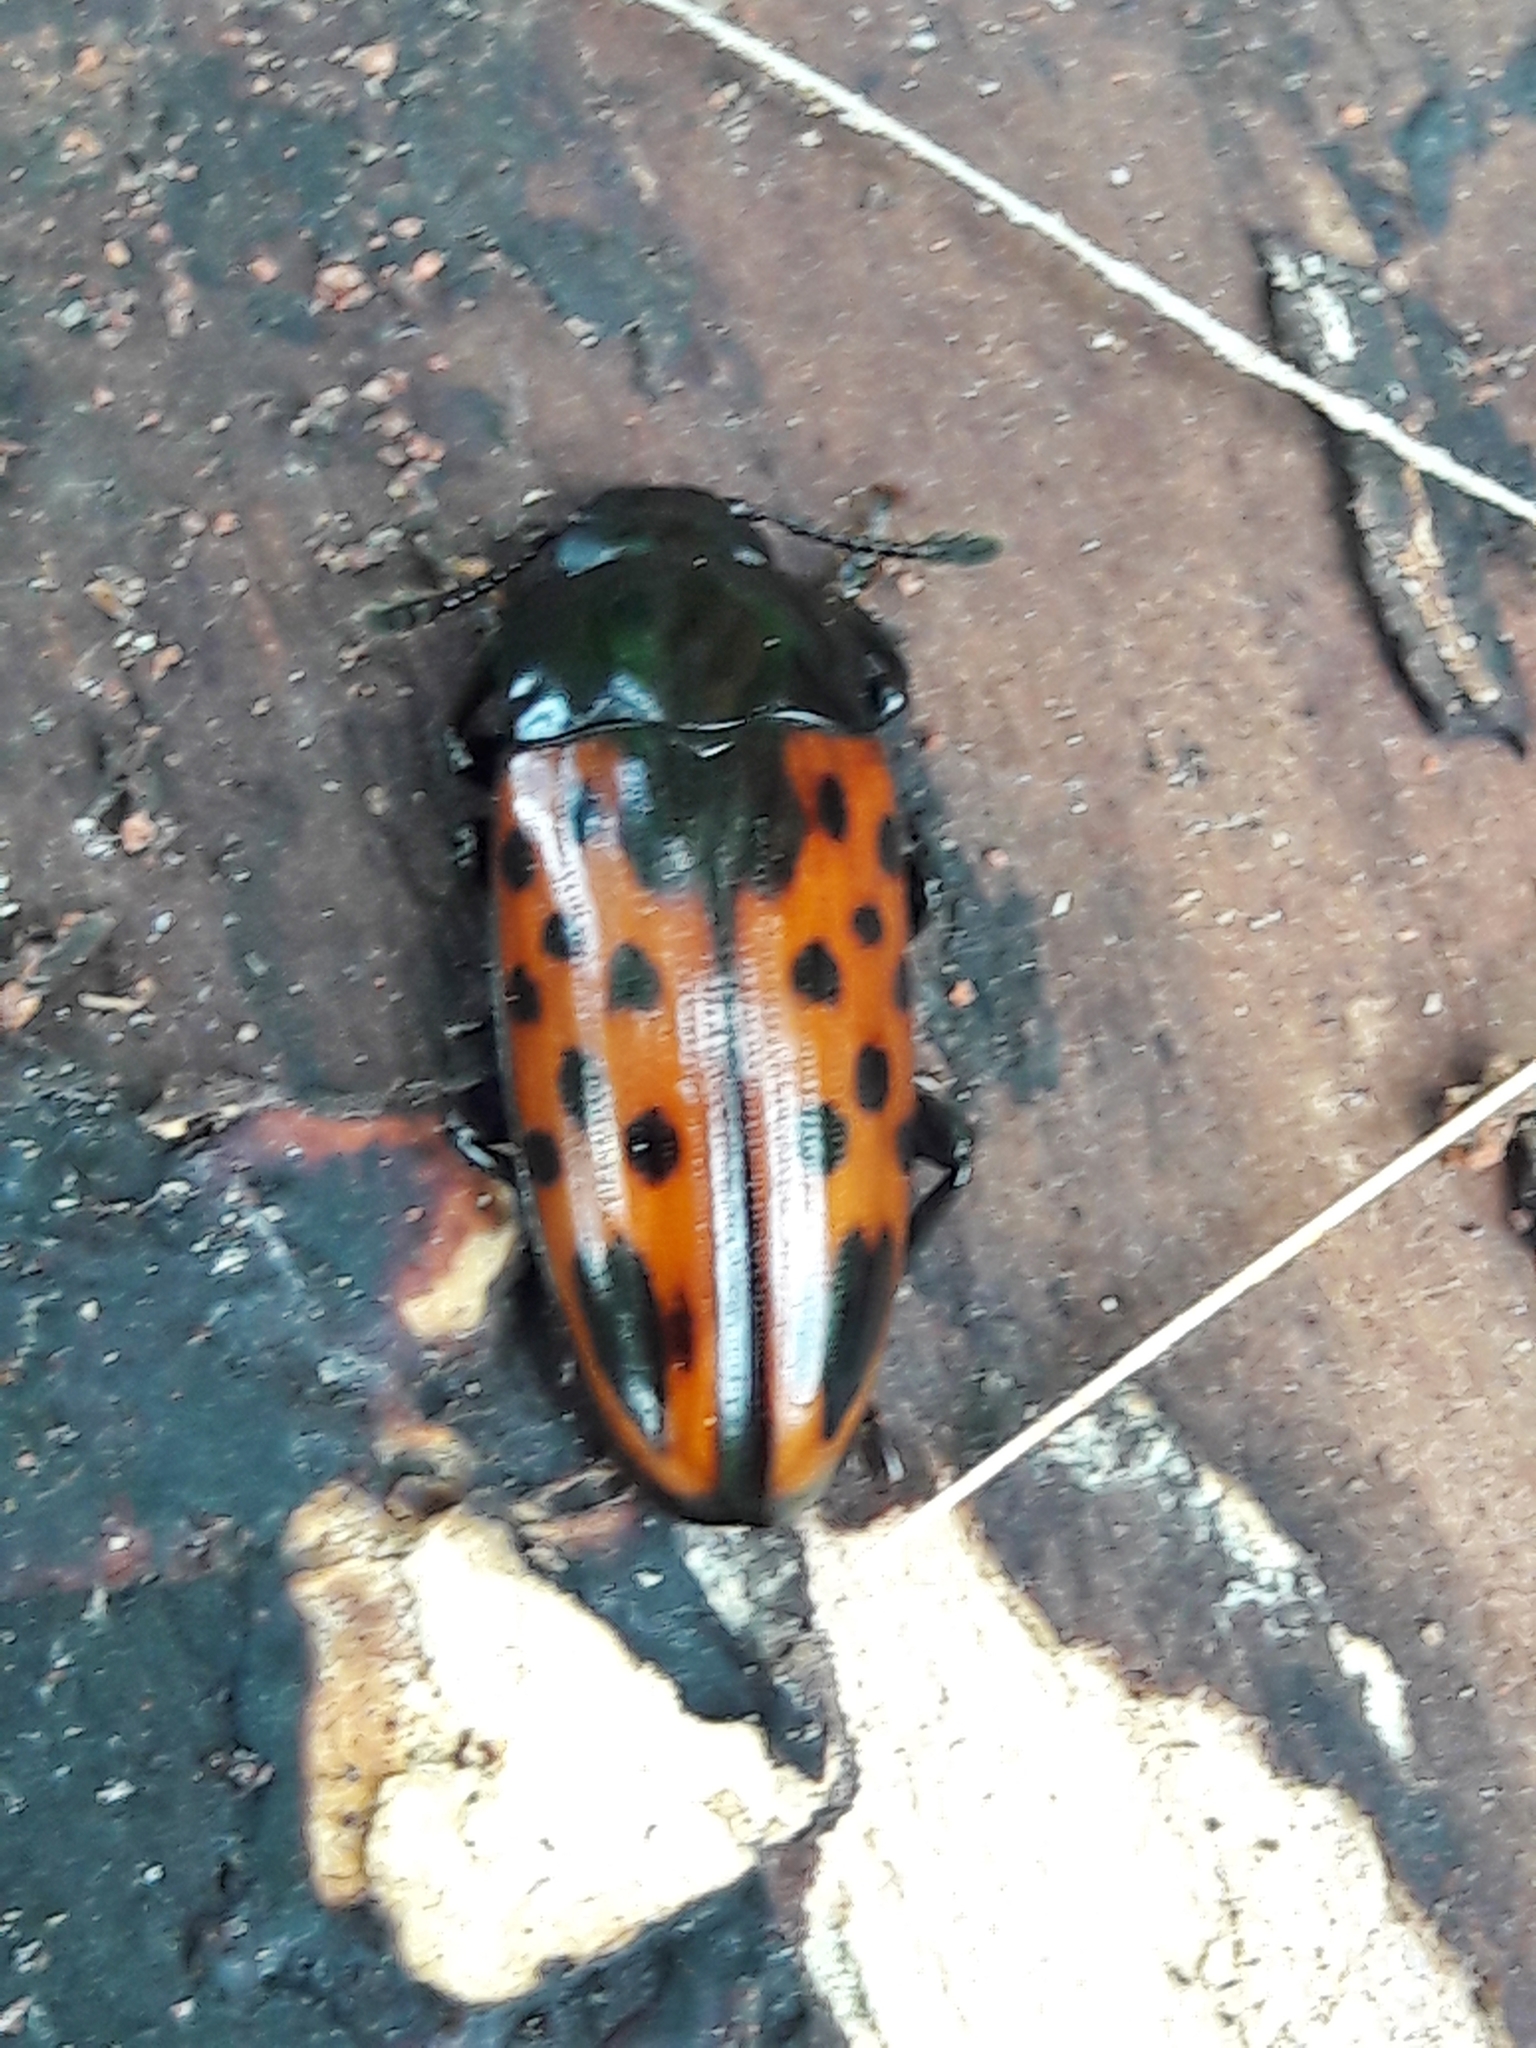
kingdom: Animalia
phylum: Arthropoda
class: Insecta
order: Coleoptera
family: Erotylidae
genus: Pselaphacus
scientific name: Pselaphacus signatus
